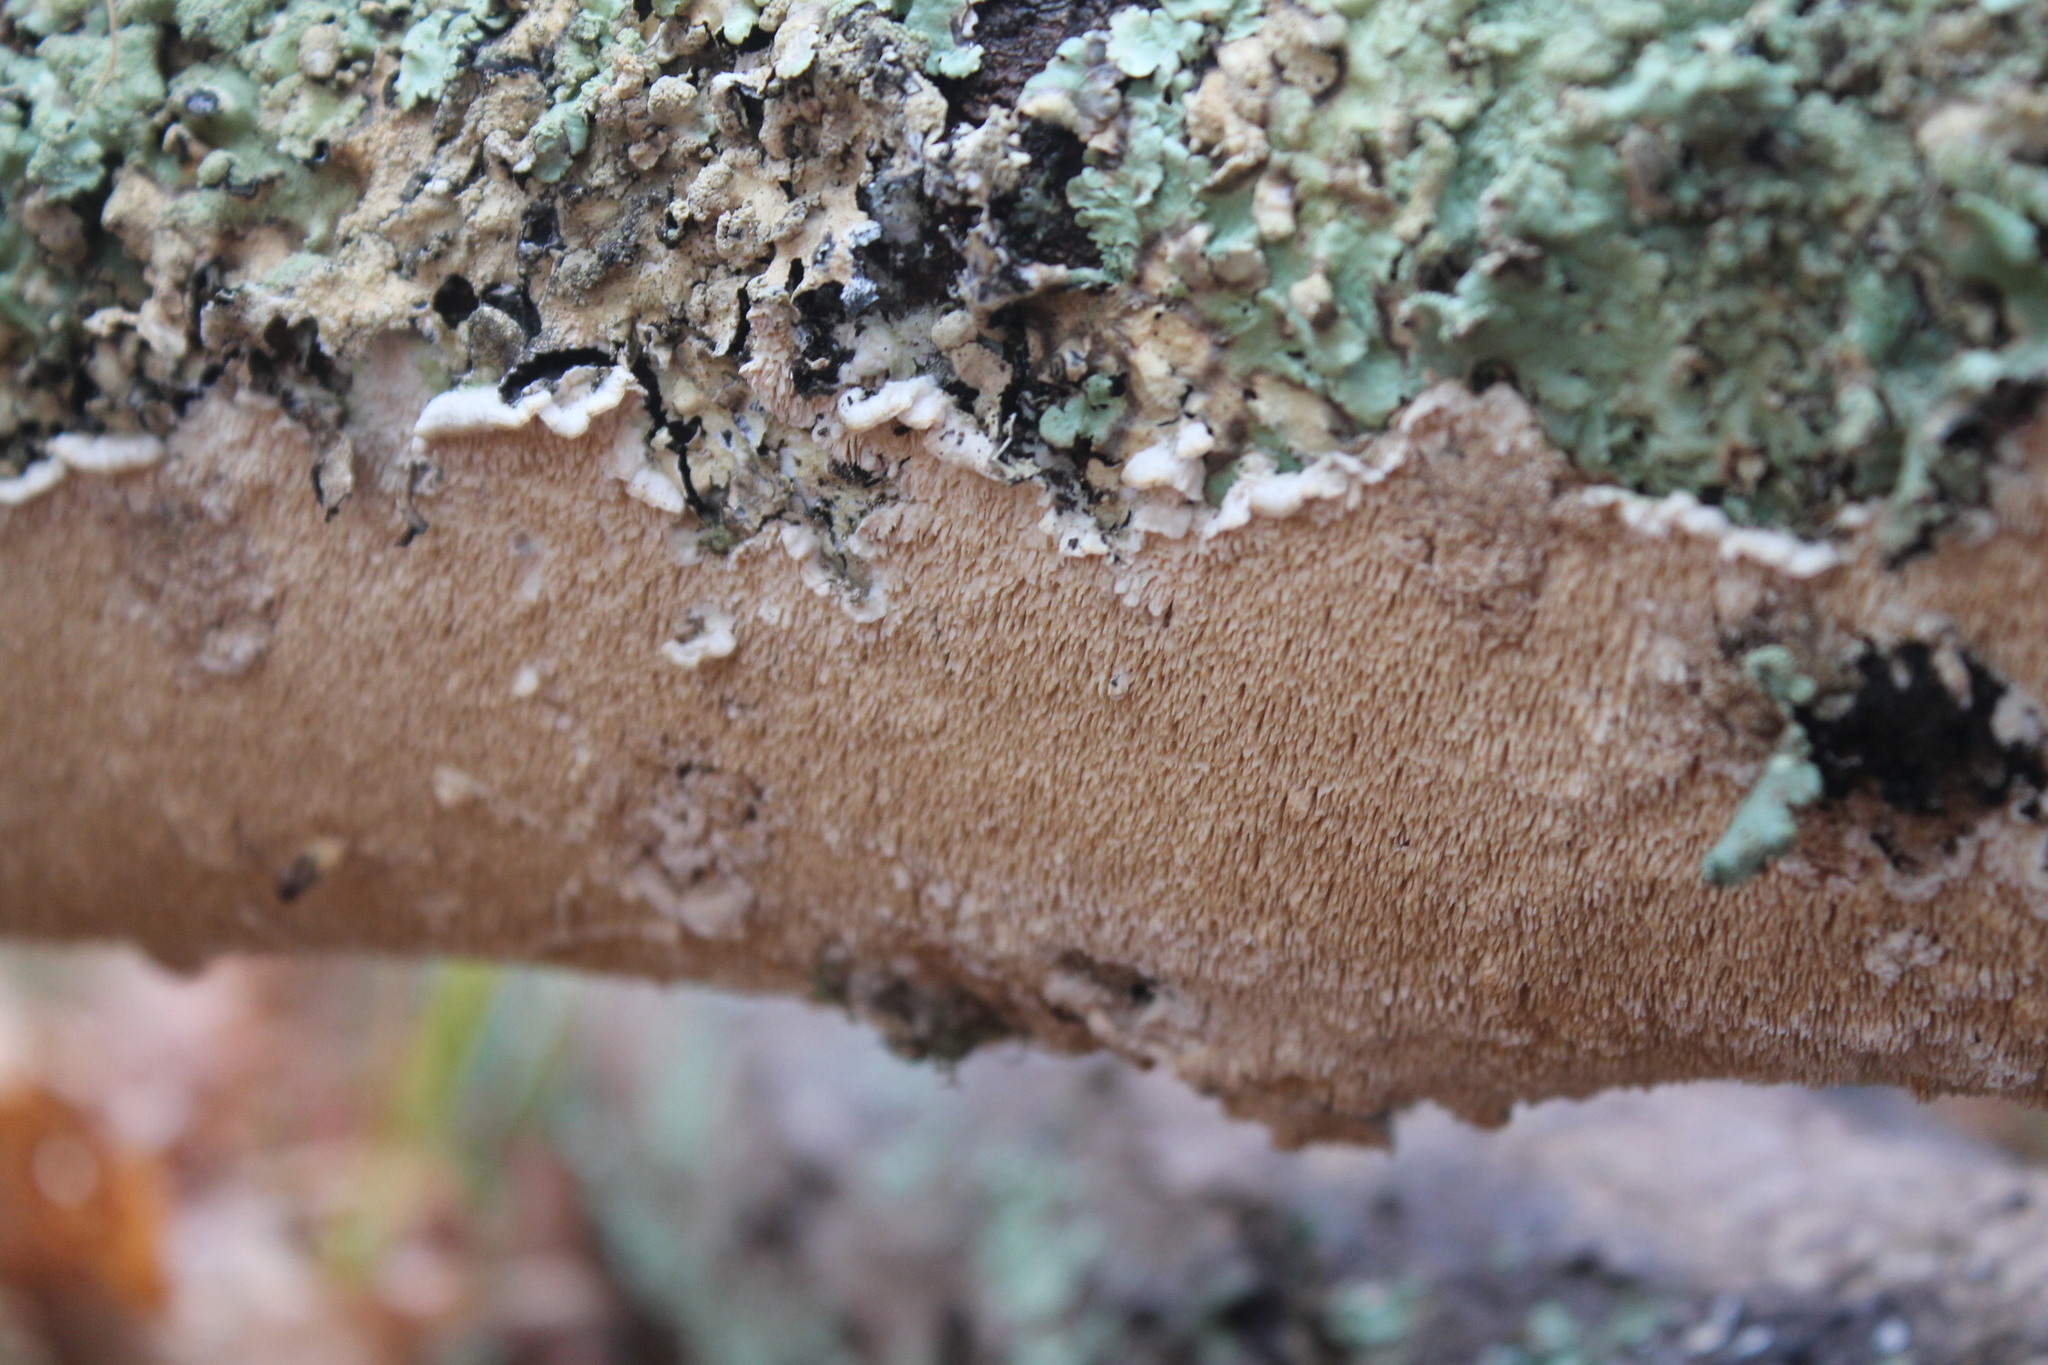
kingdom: Fungi
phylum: Basidiomycota
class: Agaricomycetes
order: Polyporales
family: Irpicaceae
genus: Irpex
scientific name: Irpex lacteus
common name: Milk-white toothed polypore
